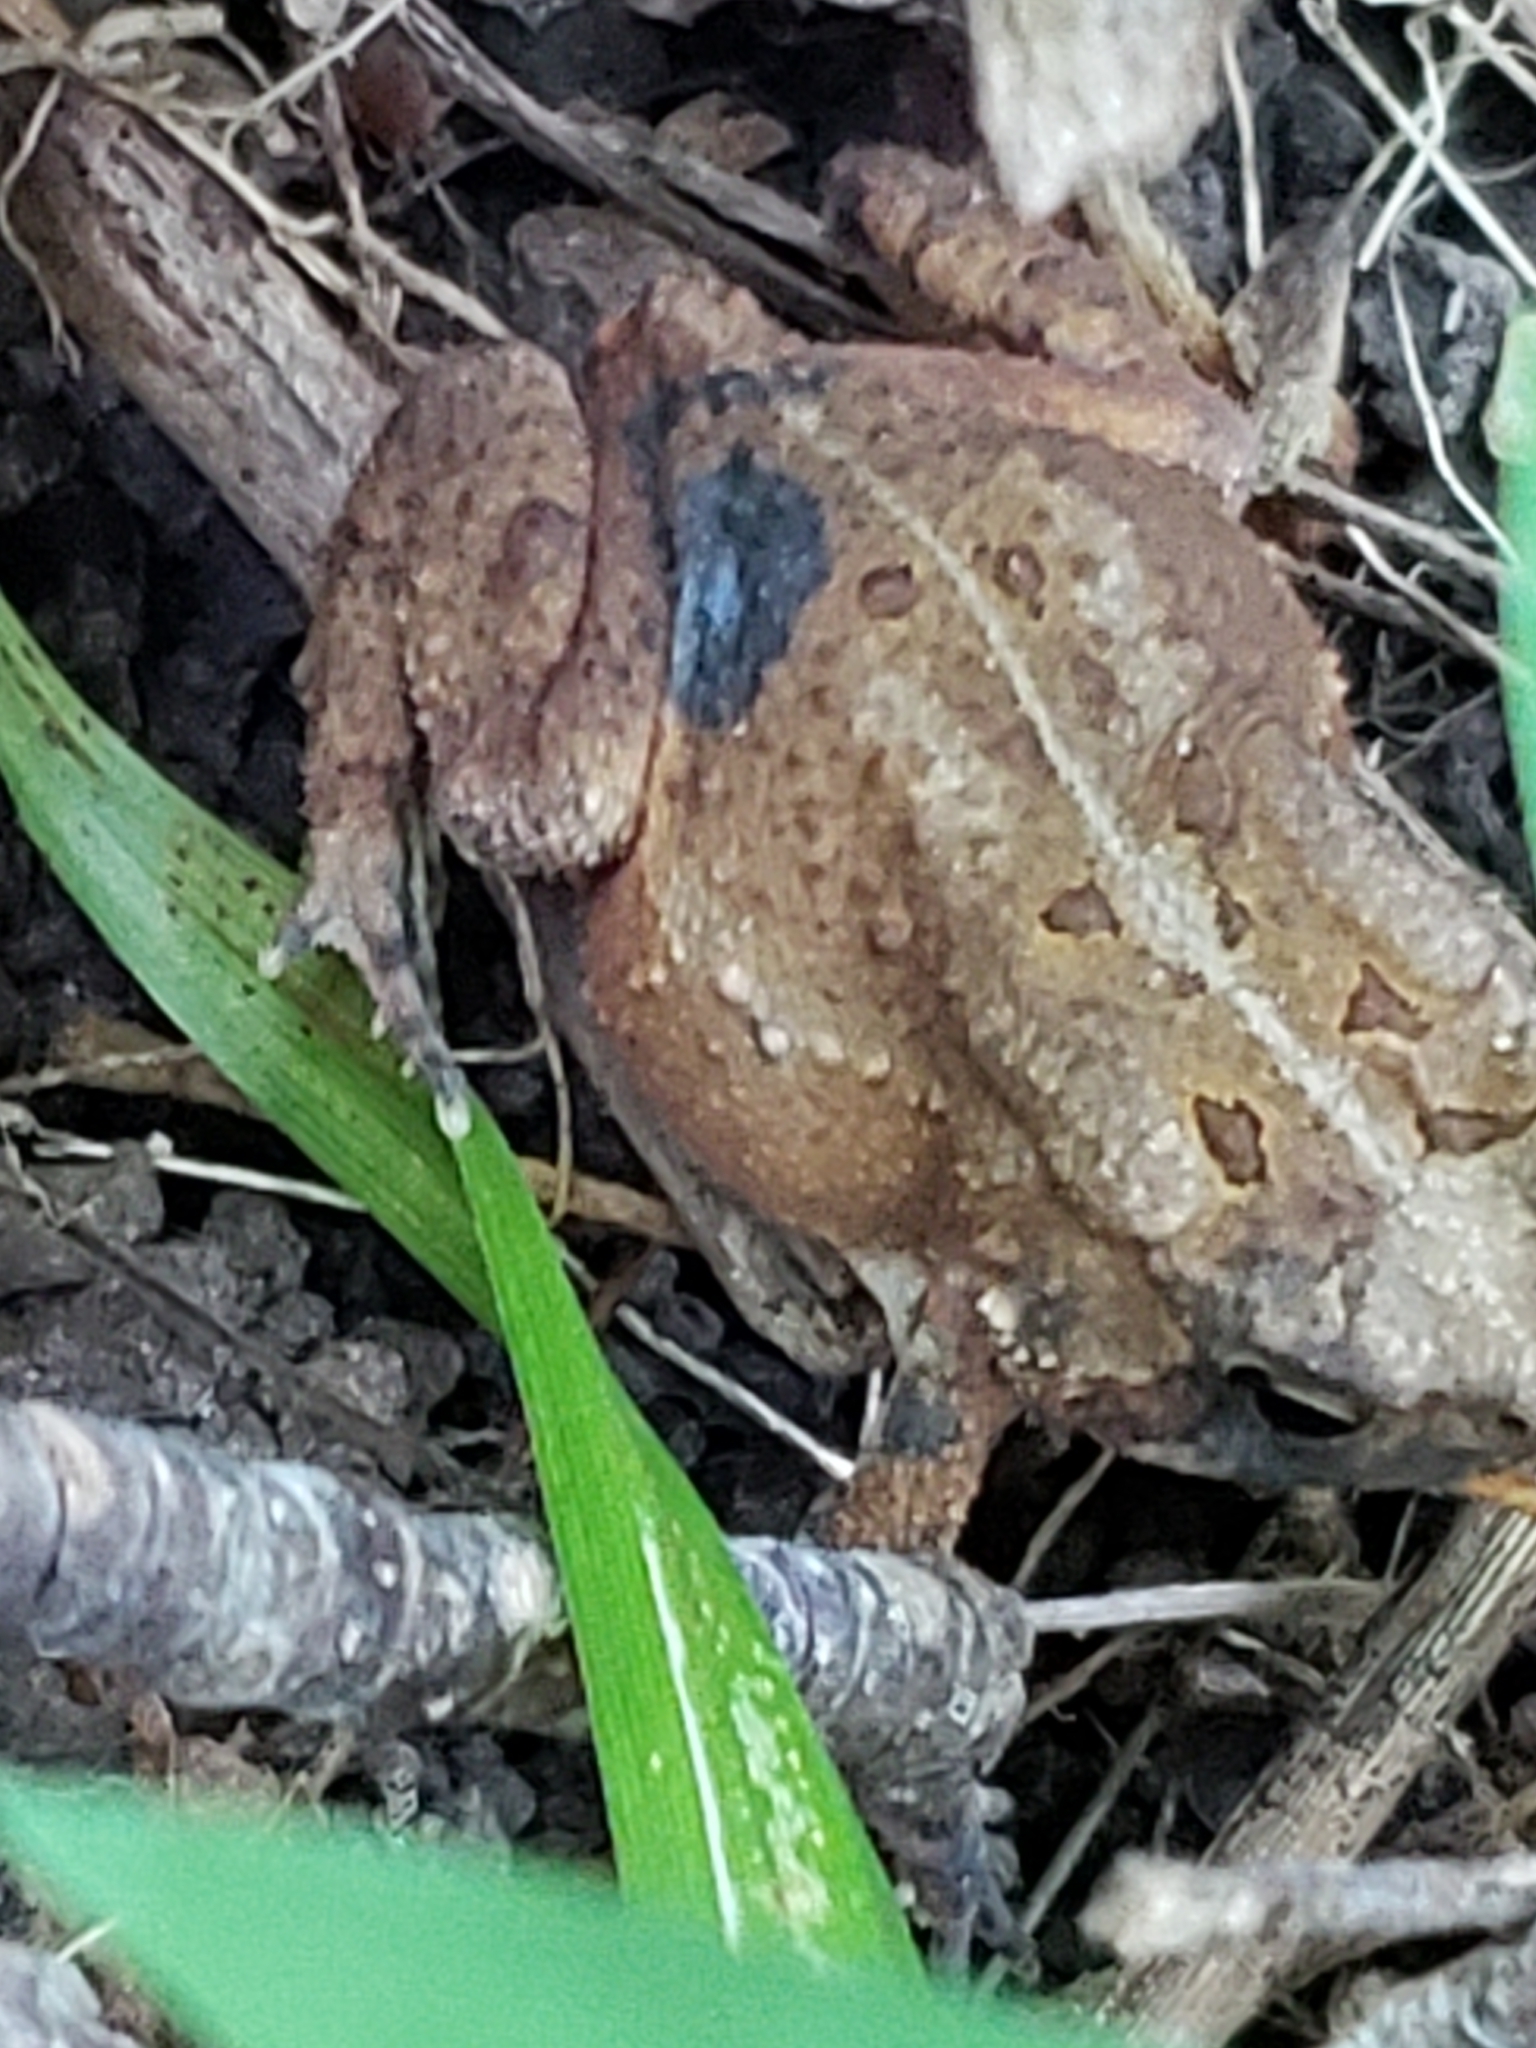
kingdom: Animalia
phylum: Chordata
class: Amphibia
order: Anura
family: Bufonidae
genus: Anaxyrus
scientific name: Anaxyrus americanus
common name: American toad
